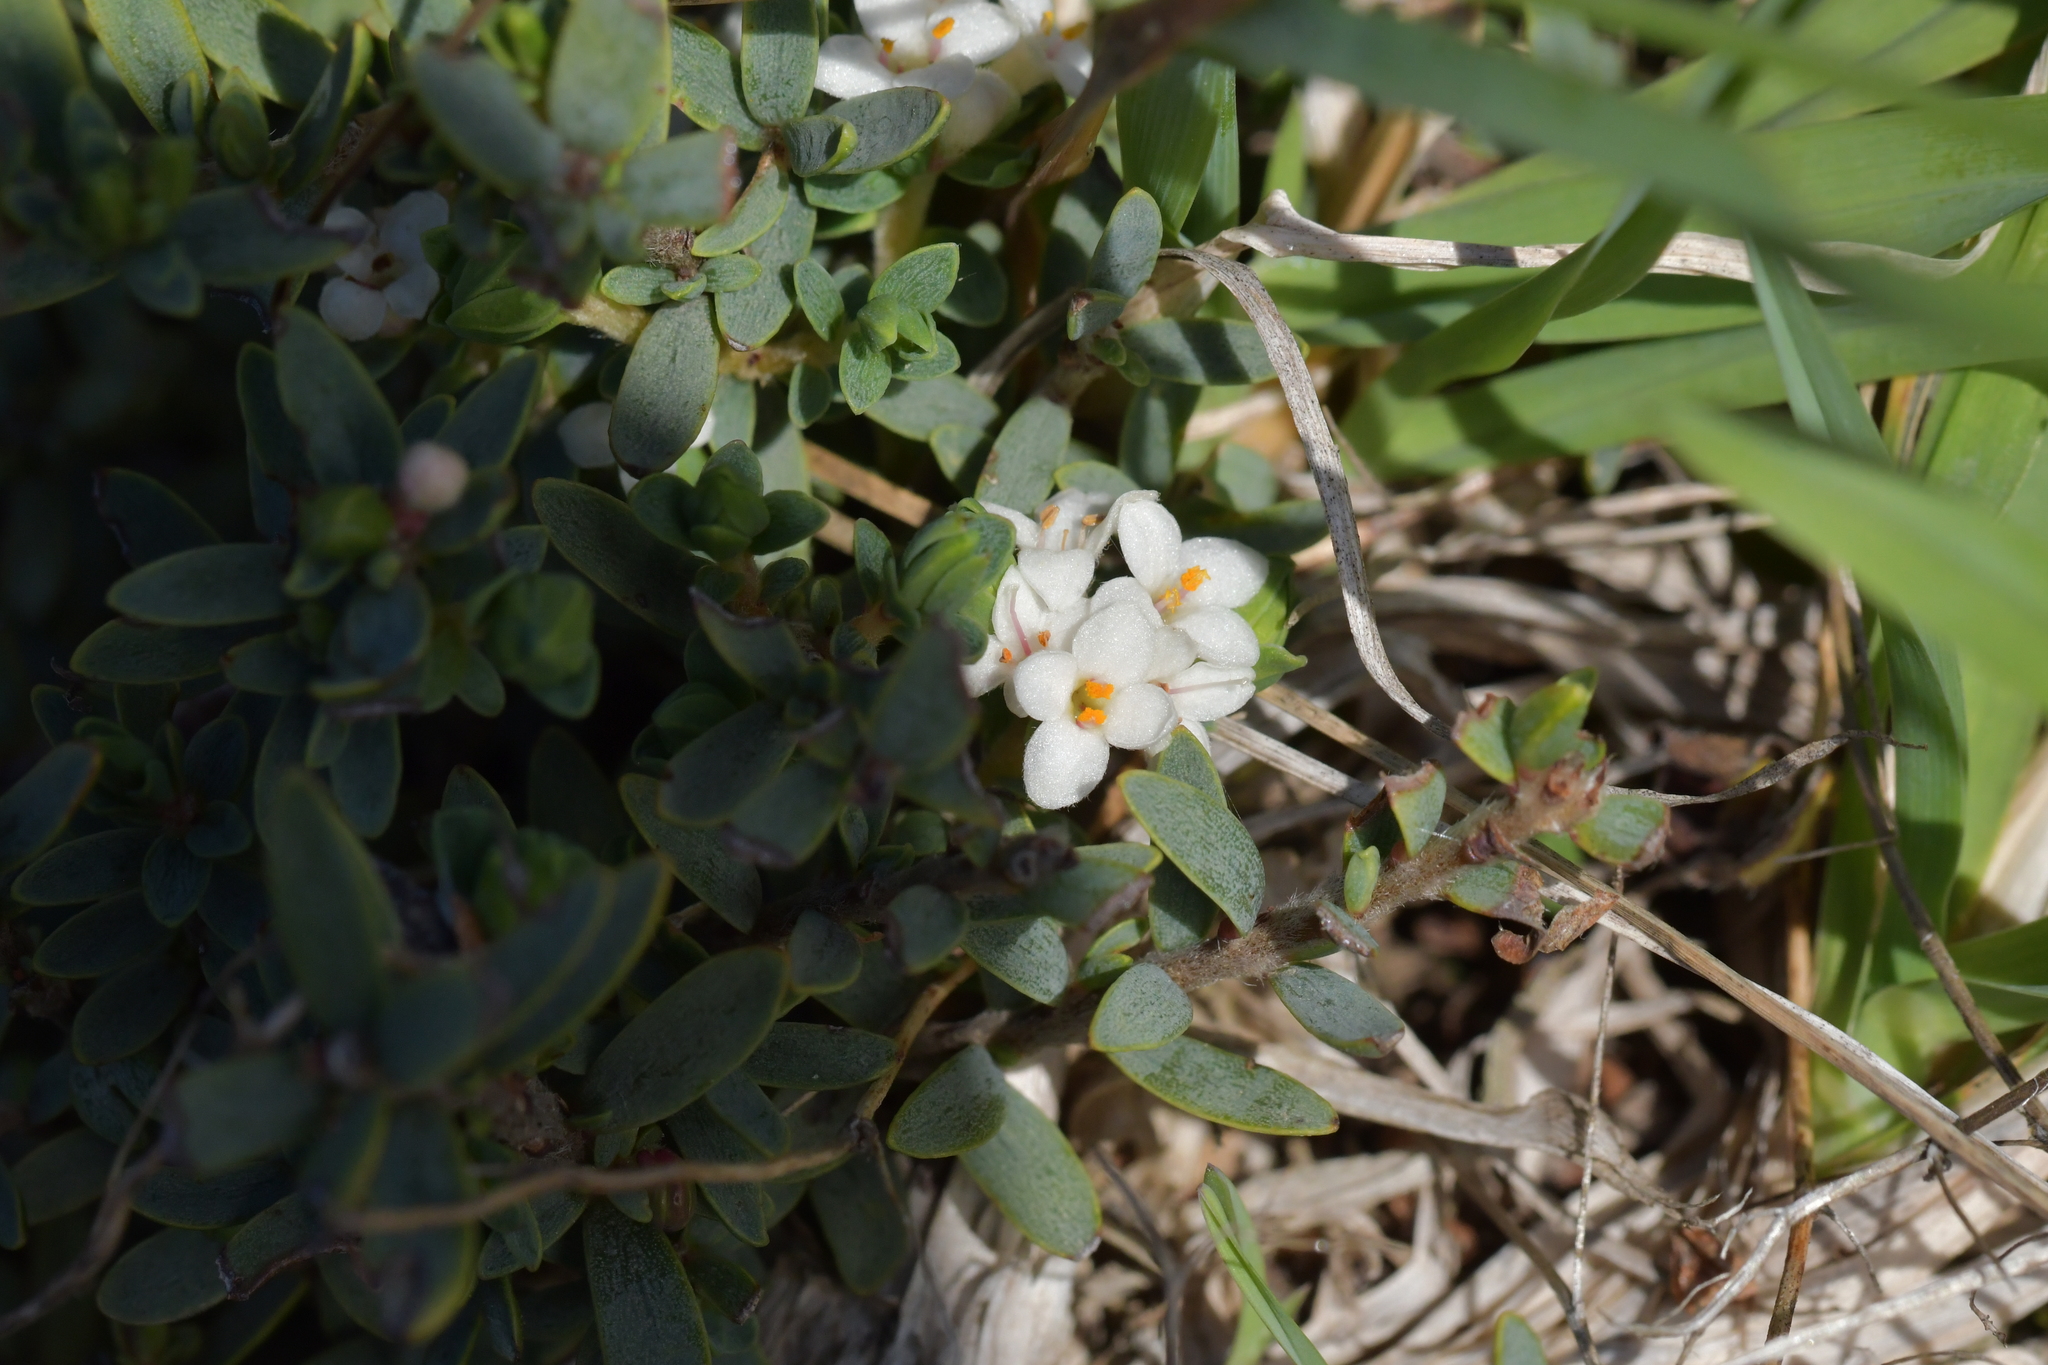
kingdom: Plantae
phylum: Tracheophyta
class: Magnoliopsida
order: Malvales
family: Thymelaeaceae
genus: Pimelea
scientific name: Pimelea prostrata
